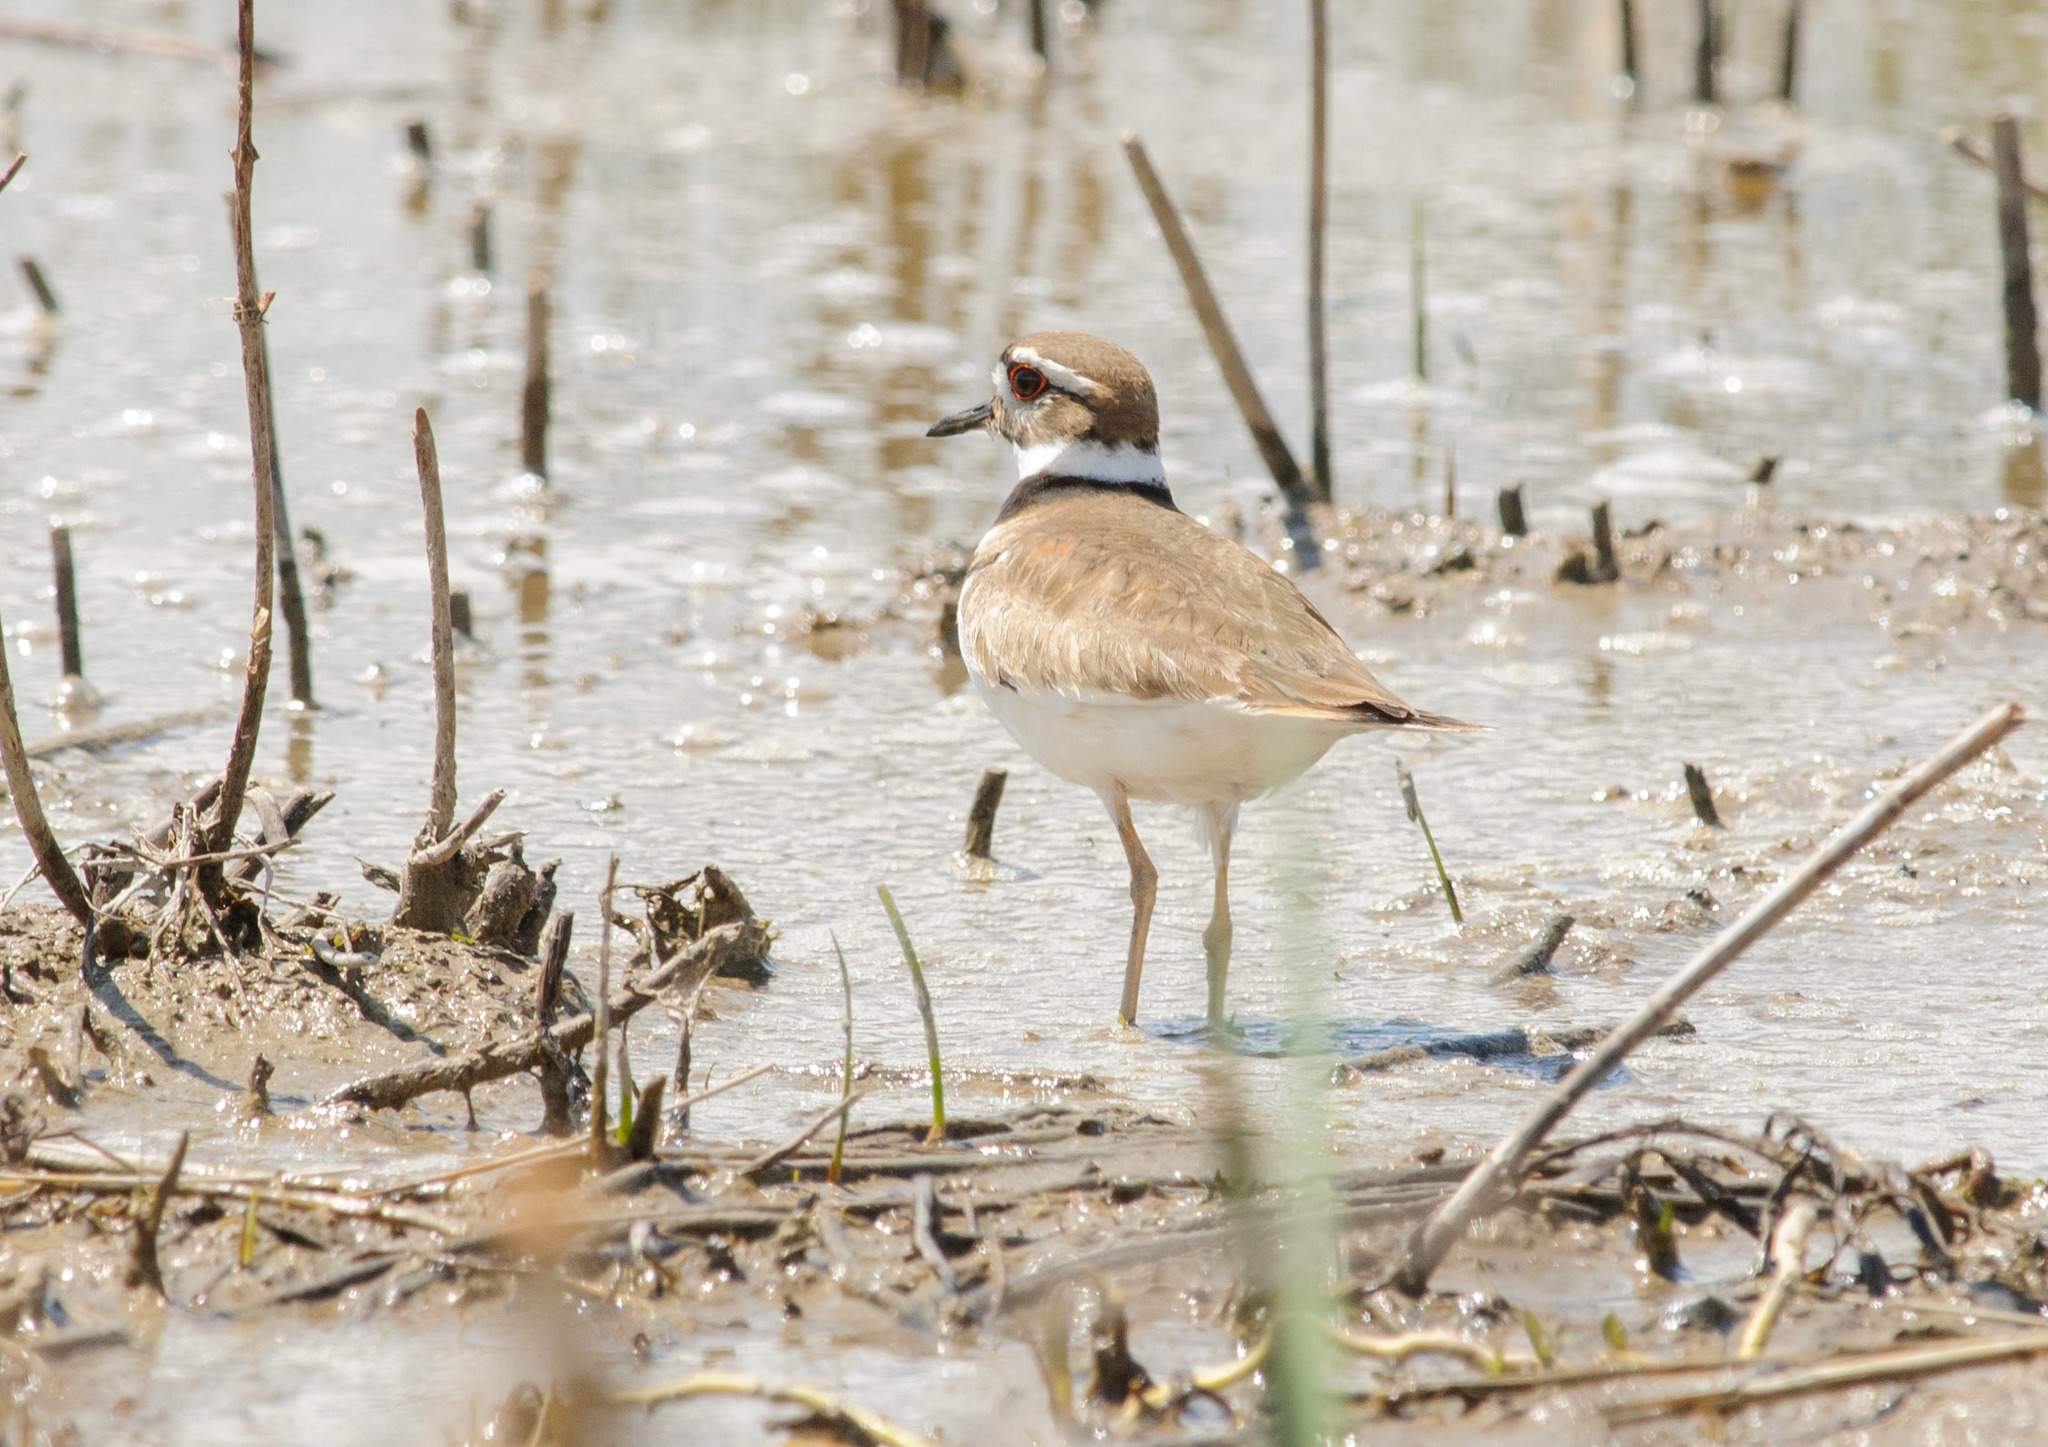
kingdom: Animalia
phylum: Chordata
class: Aves
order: Charadriiformes
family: Charadriidae
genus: Charadrius
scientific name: Charadrius vociferus
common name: Killdeer
